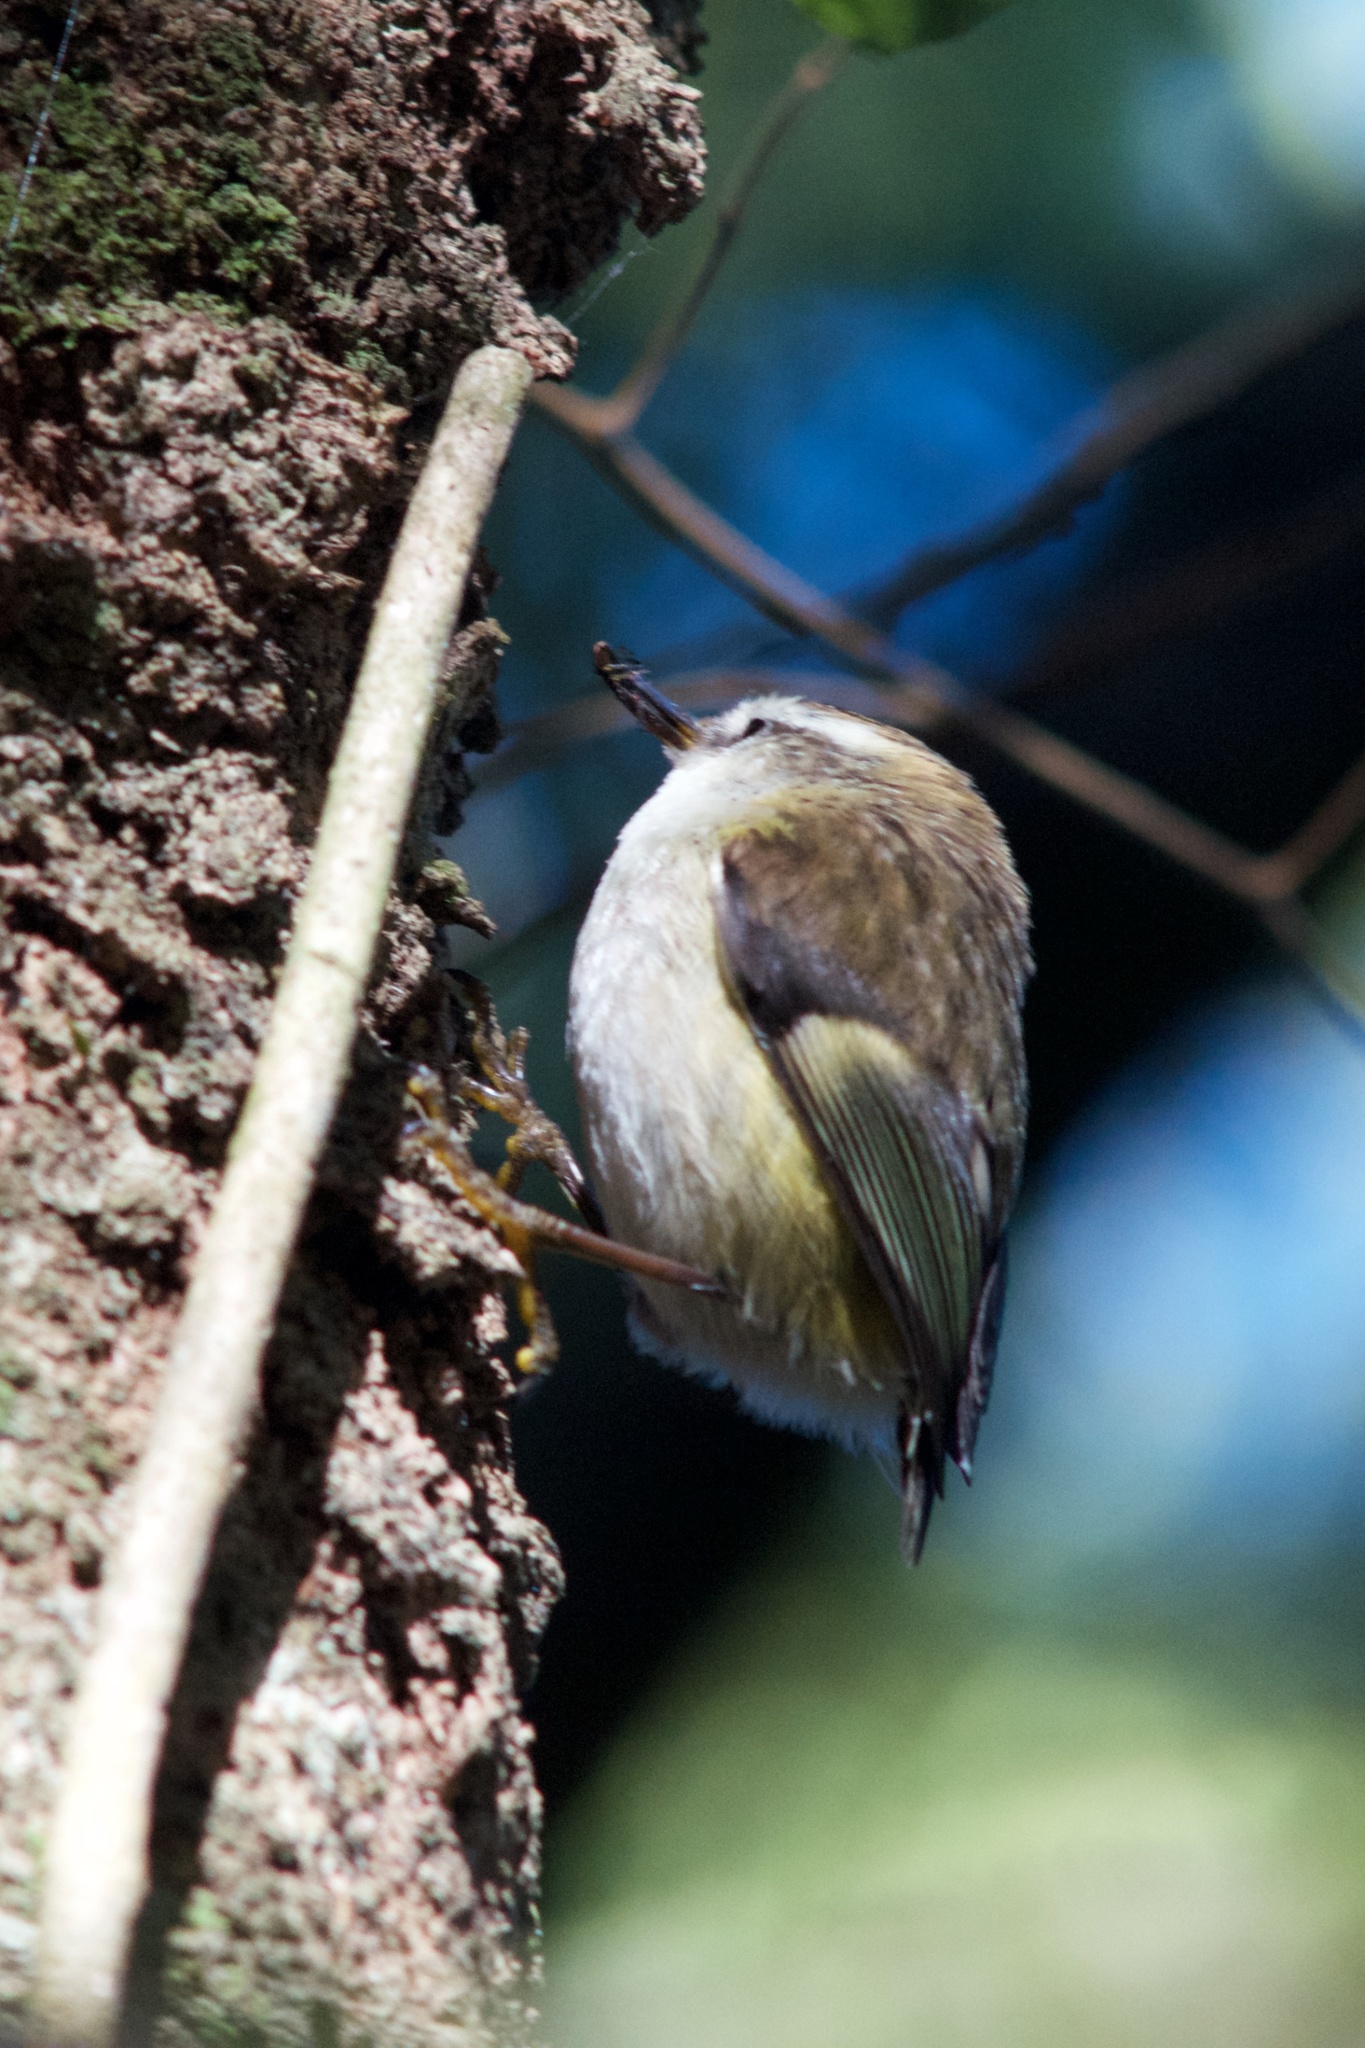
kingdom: Animalia
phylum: Chordata
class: Aves
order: Passeriformes
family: Acanthisittidae
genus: Acanthisitta
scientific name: Acanthisitta chloris
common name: Rifleman
